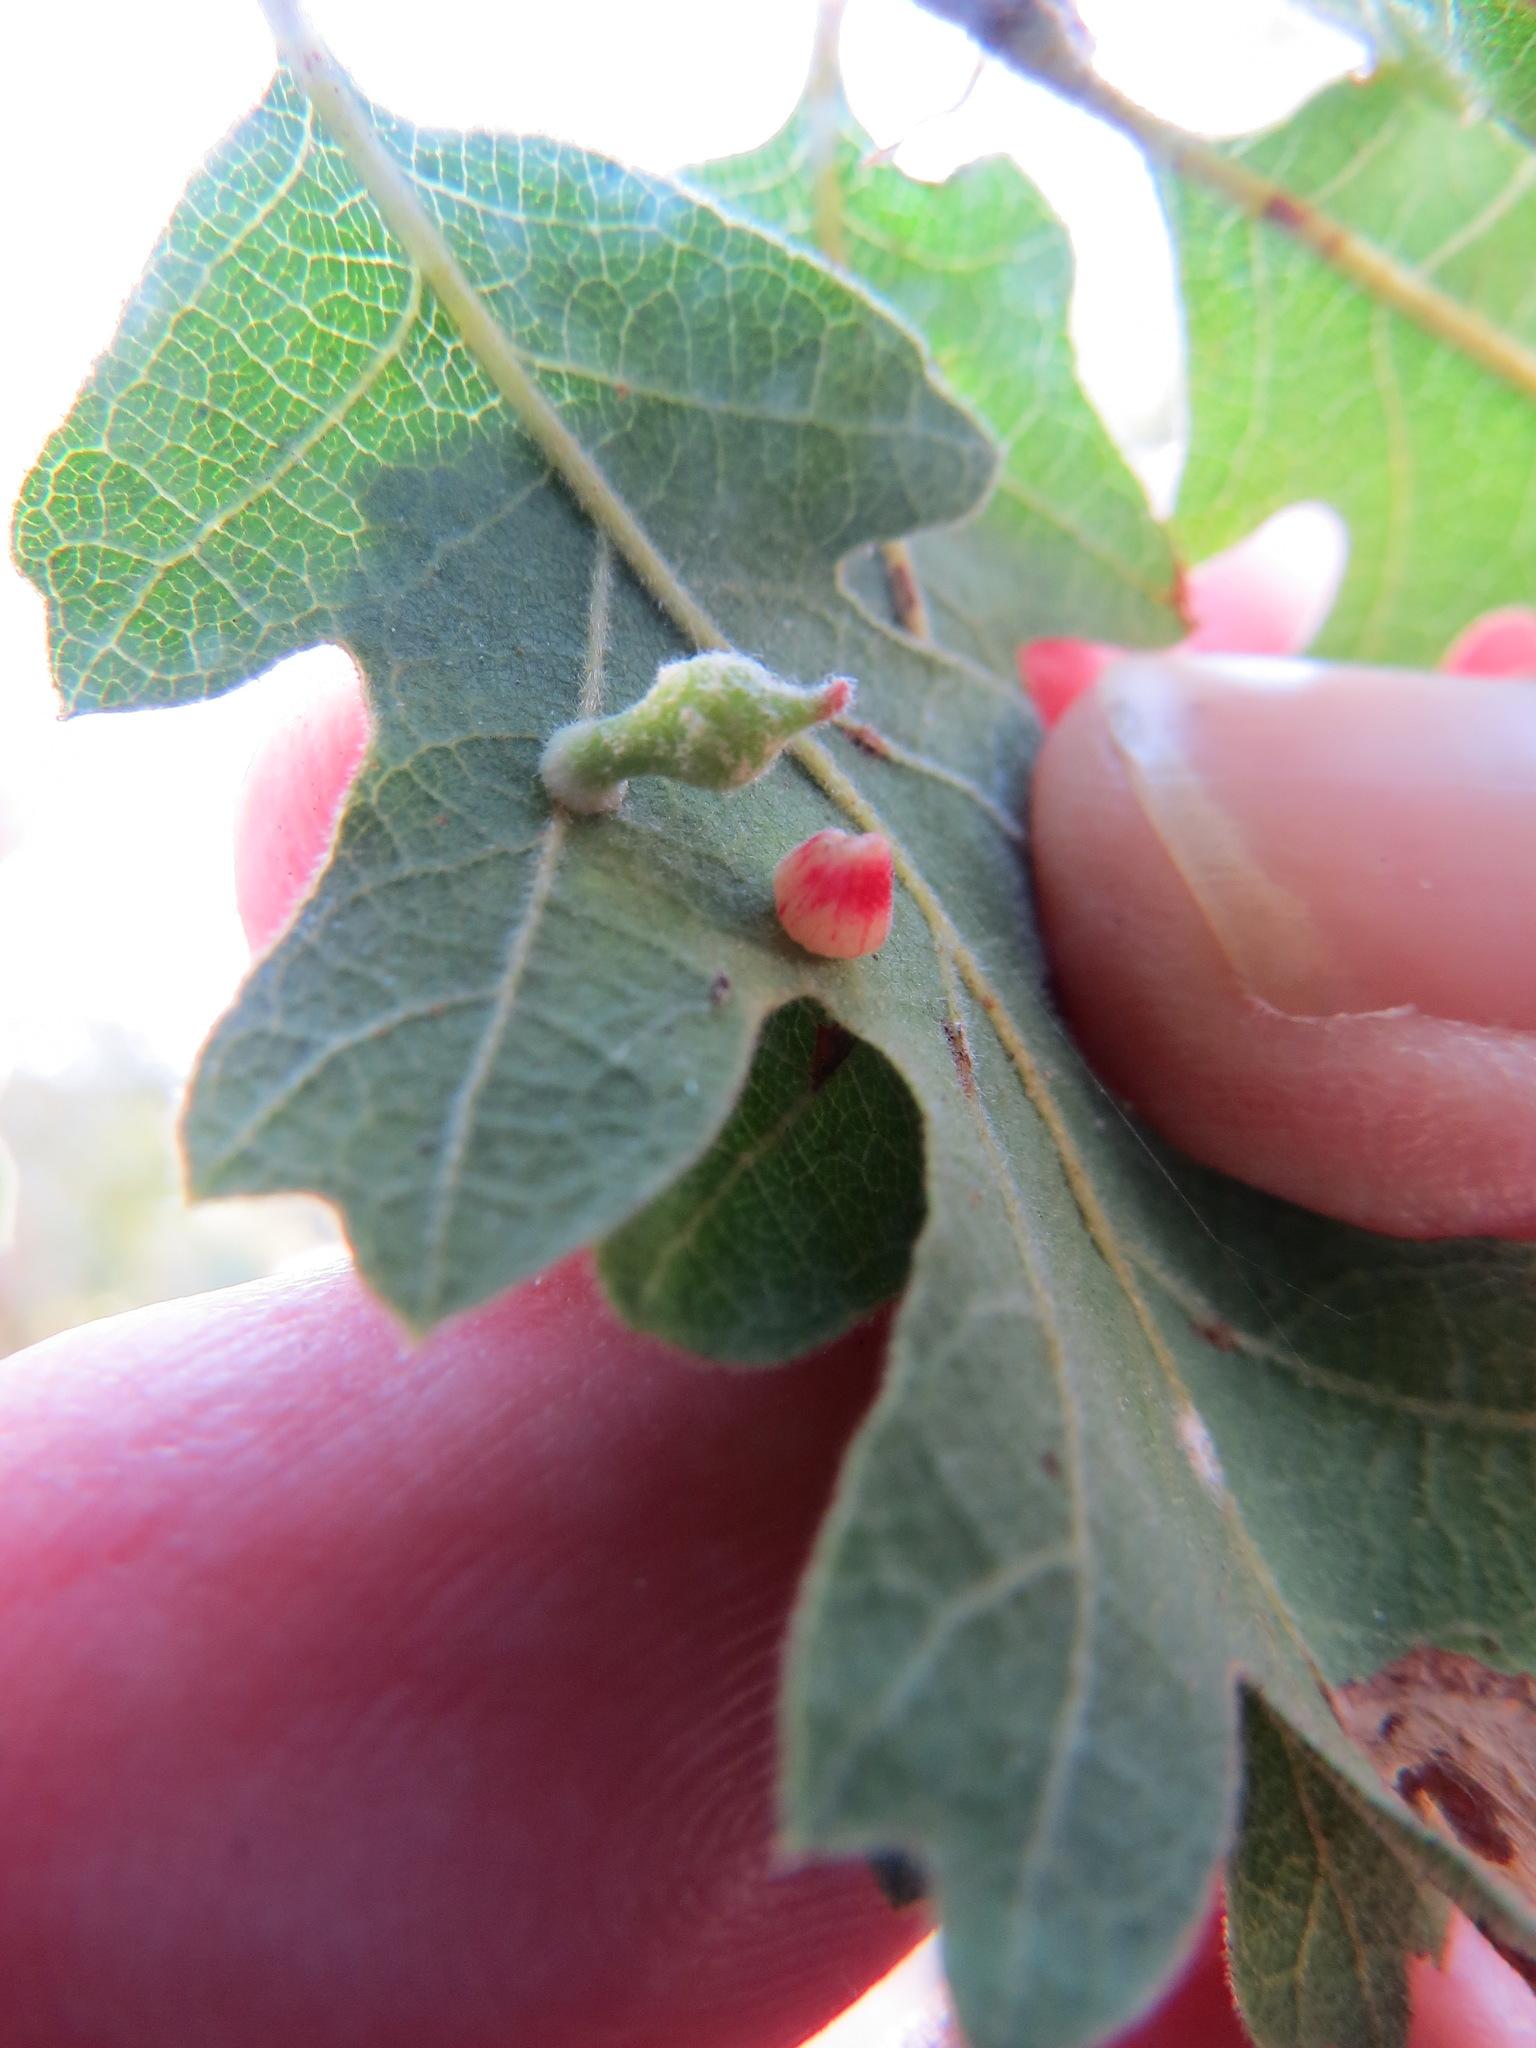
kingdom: Animalia
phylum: Arthropoda
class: Insecta
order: Hymenoptera
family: Cynipidae
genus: Atrusca
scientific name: Atrusca
